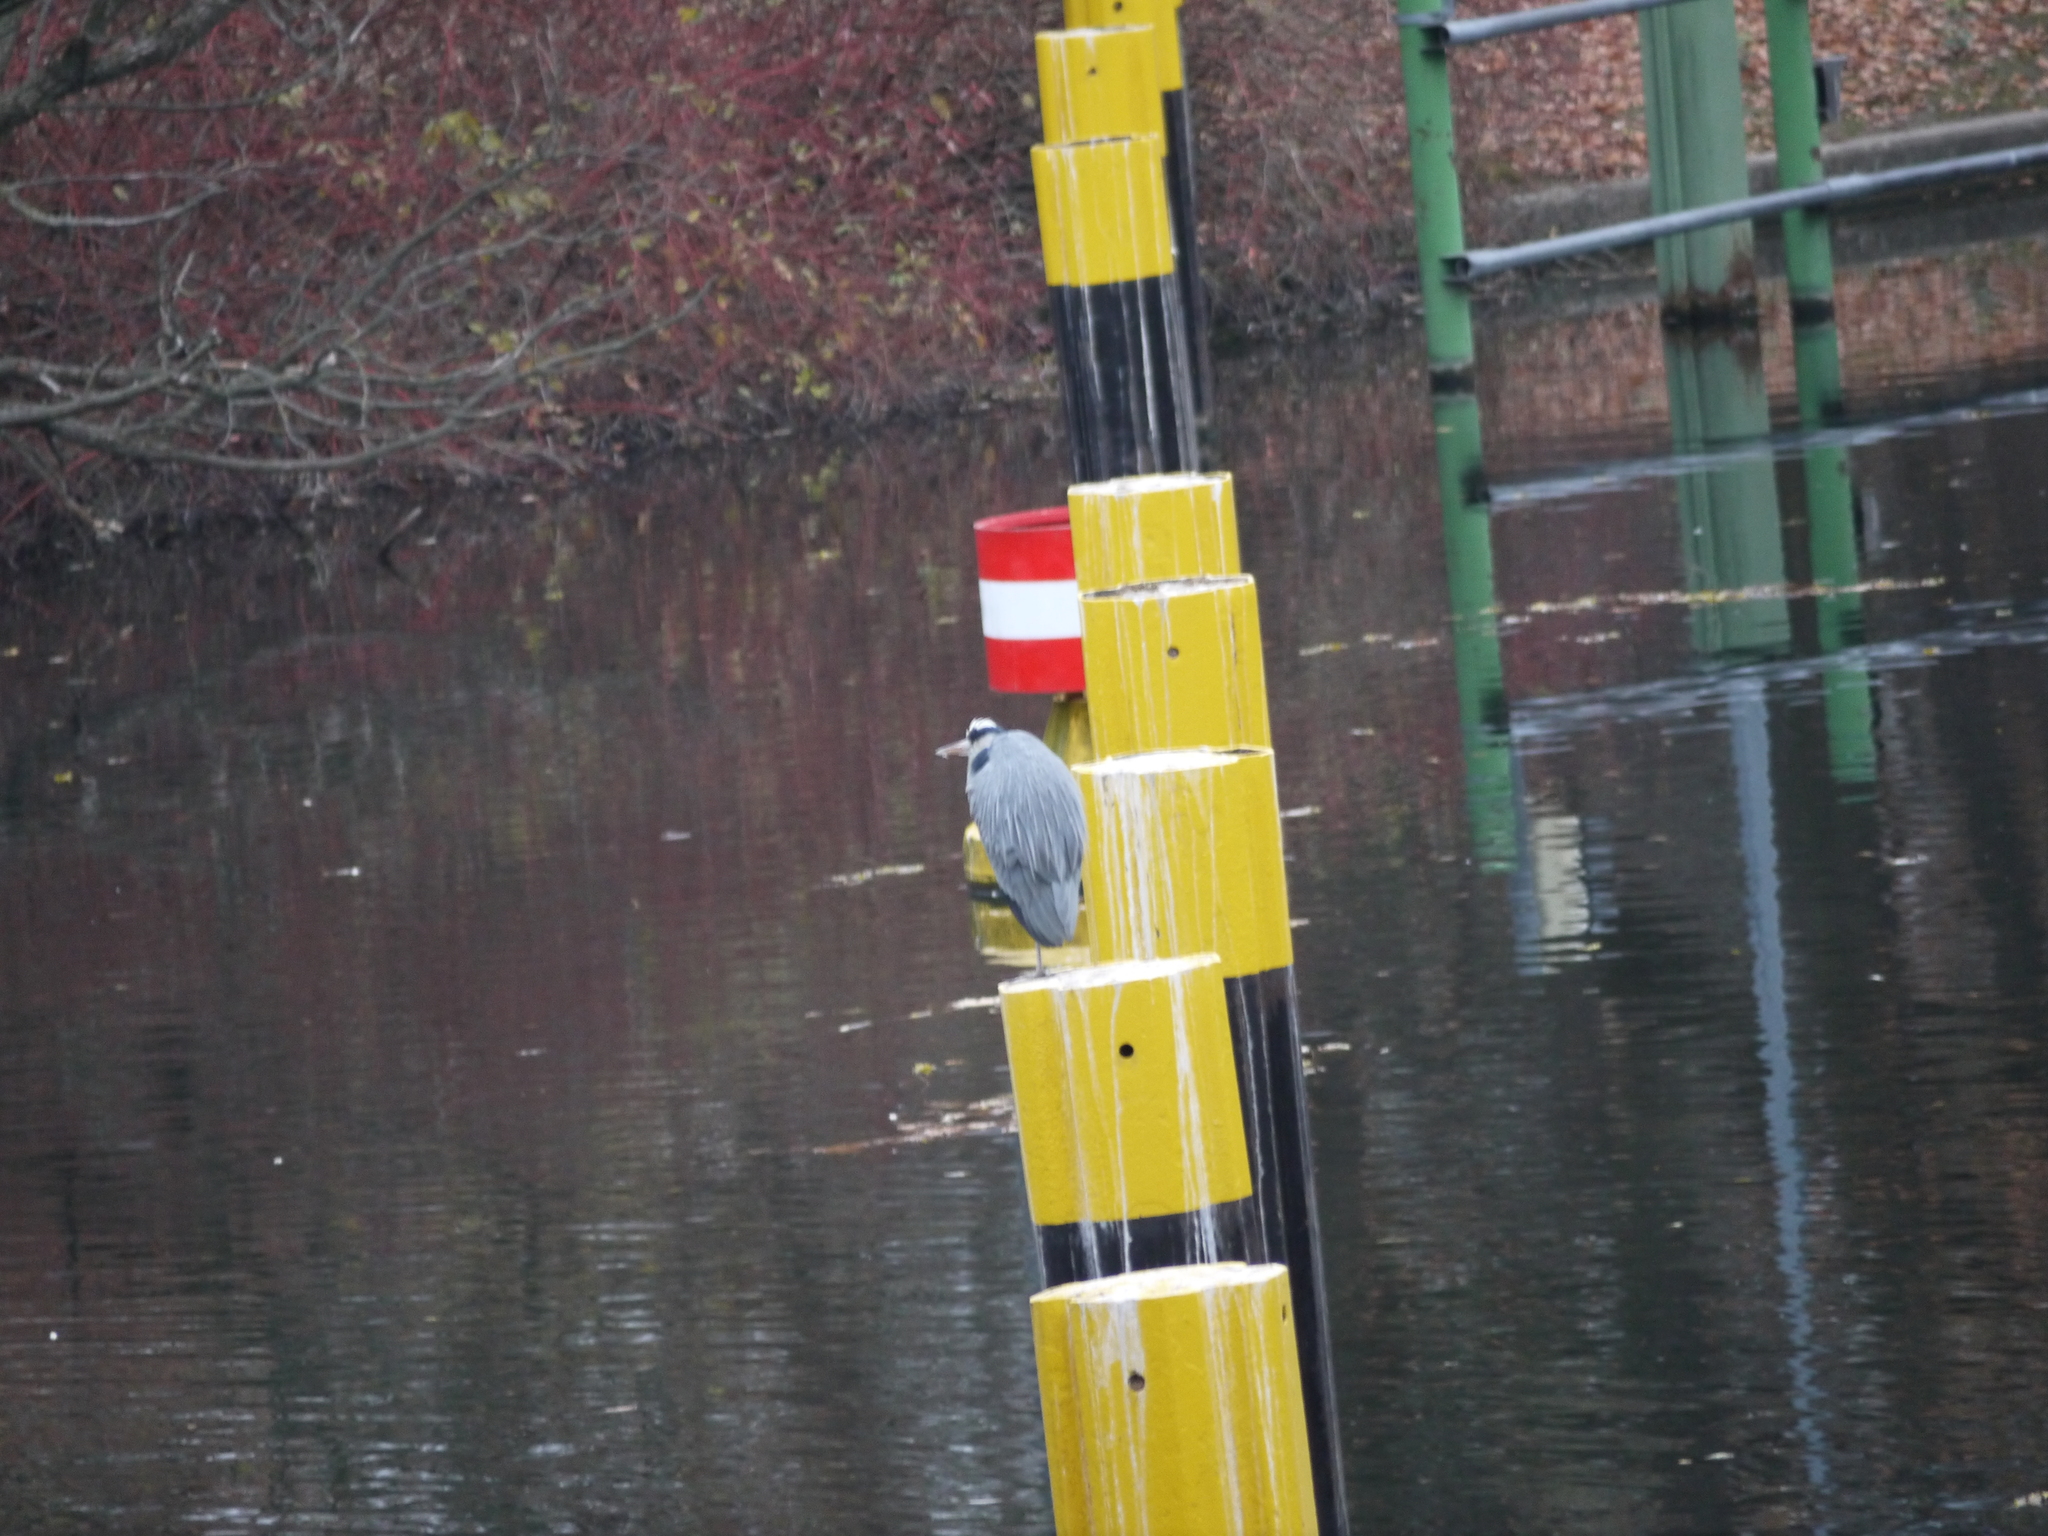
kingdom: Animalia
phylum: Chordata
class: Aves
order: Pelecaniformes
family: Ardeidae
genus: Ardea
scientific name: Ardea cinerea
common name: Grey heron
